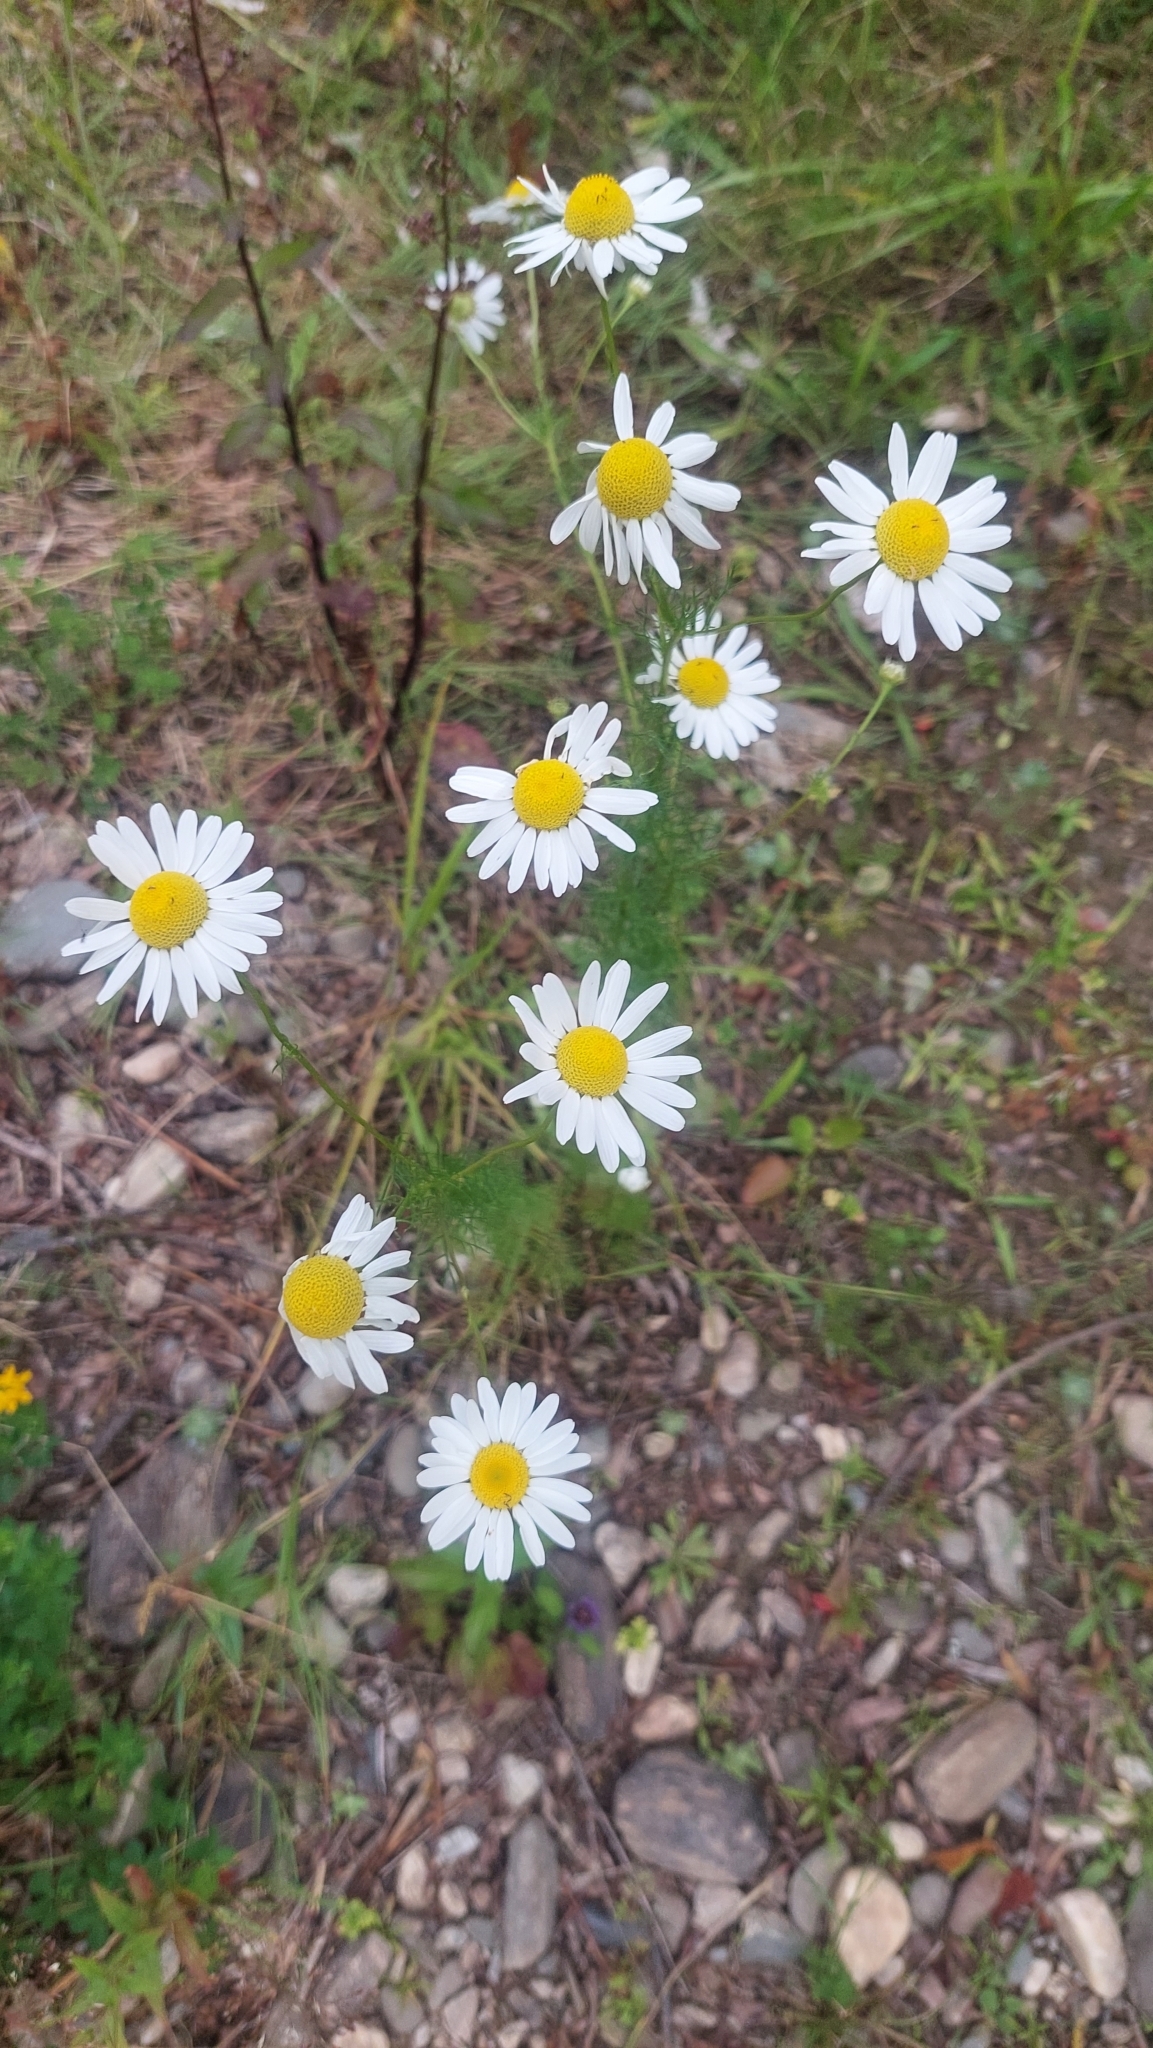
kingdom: Plantae
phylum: Tracheophyta
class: Magnoliopsida
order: Asterales
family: Asteraceae
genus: Tripleurospermum
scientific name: Tripleurospermum inodorum
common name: Scentless mayweed
